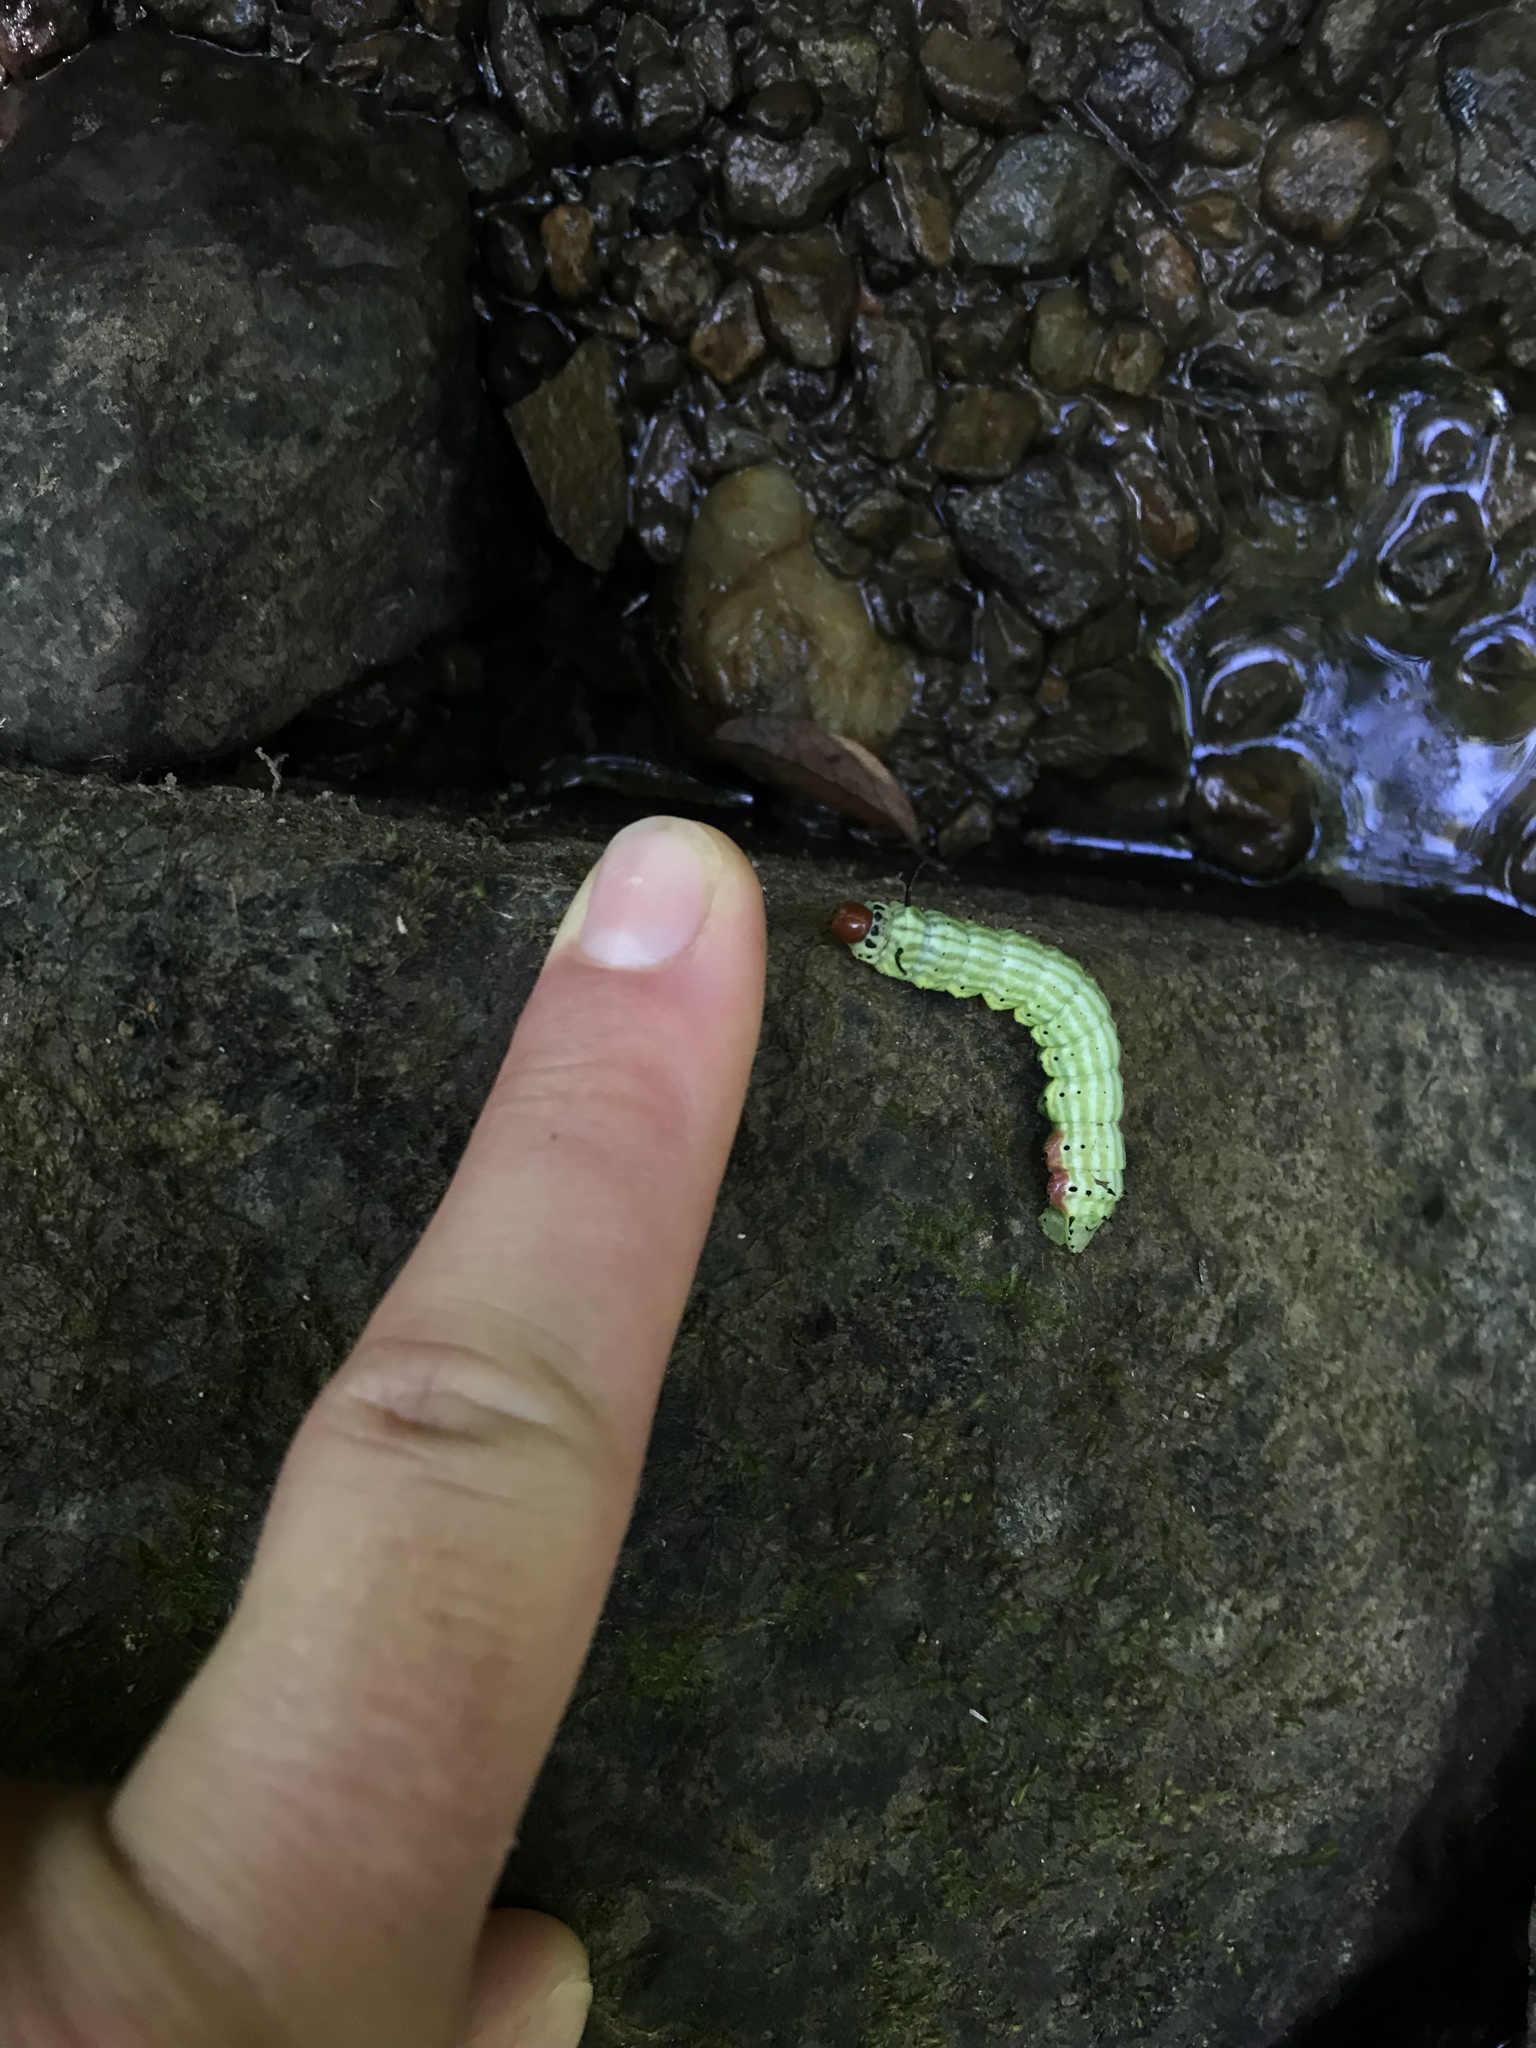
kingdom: Animalia
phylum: Arthropoda
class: Insecta
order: Lepidoptera
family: Saturniidae
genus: Dryocampa
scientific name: Dryocampa rubicunda
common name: Rosy maple moth
